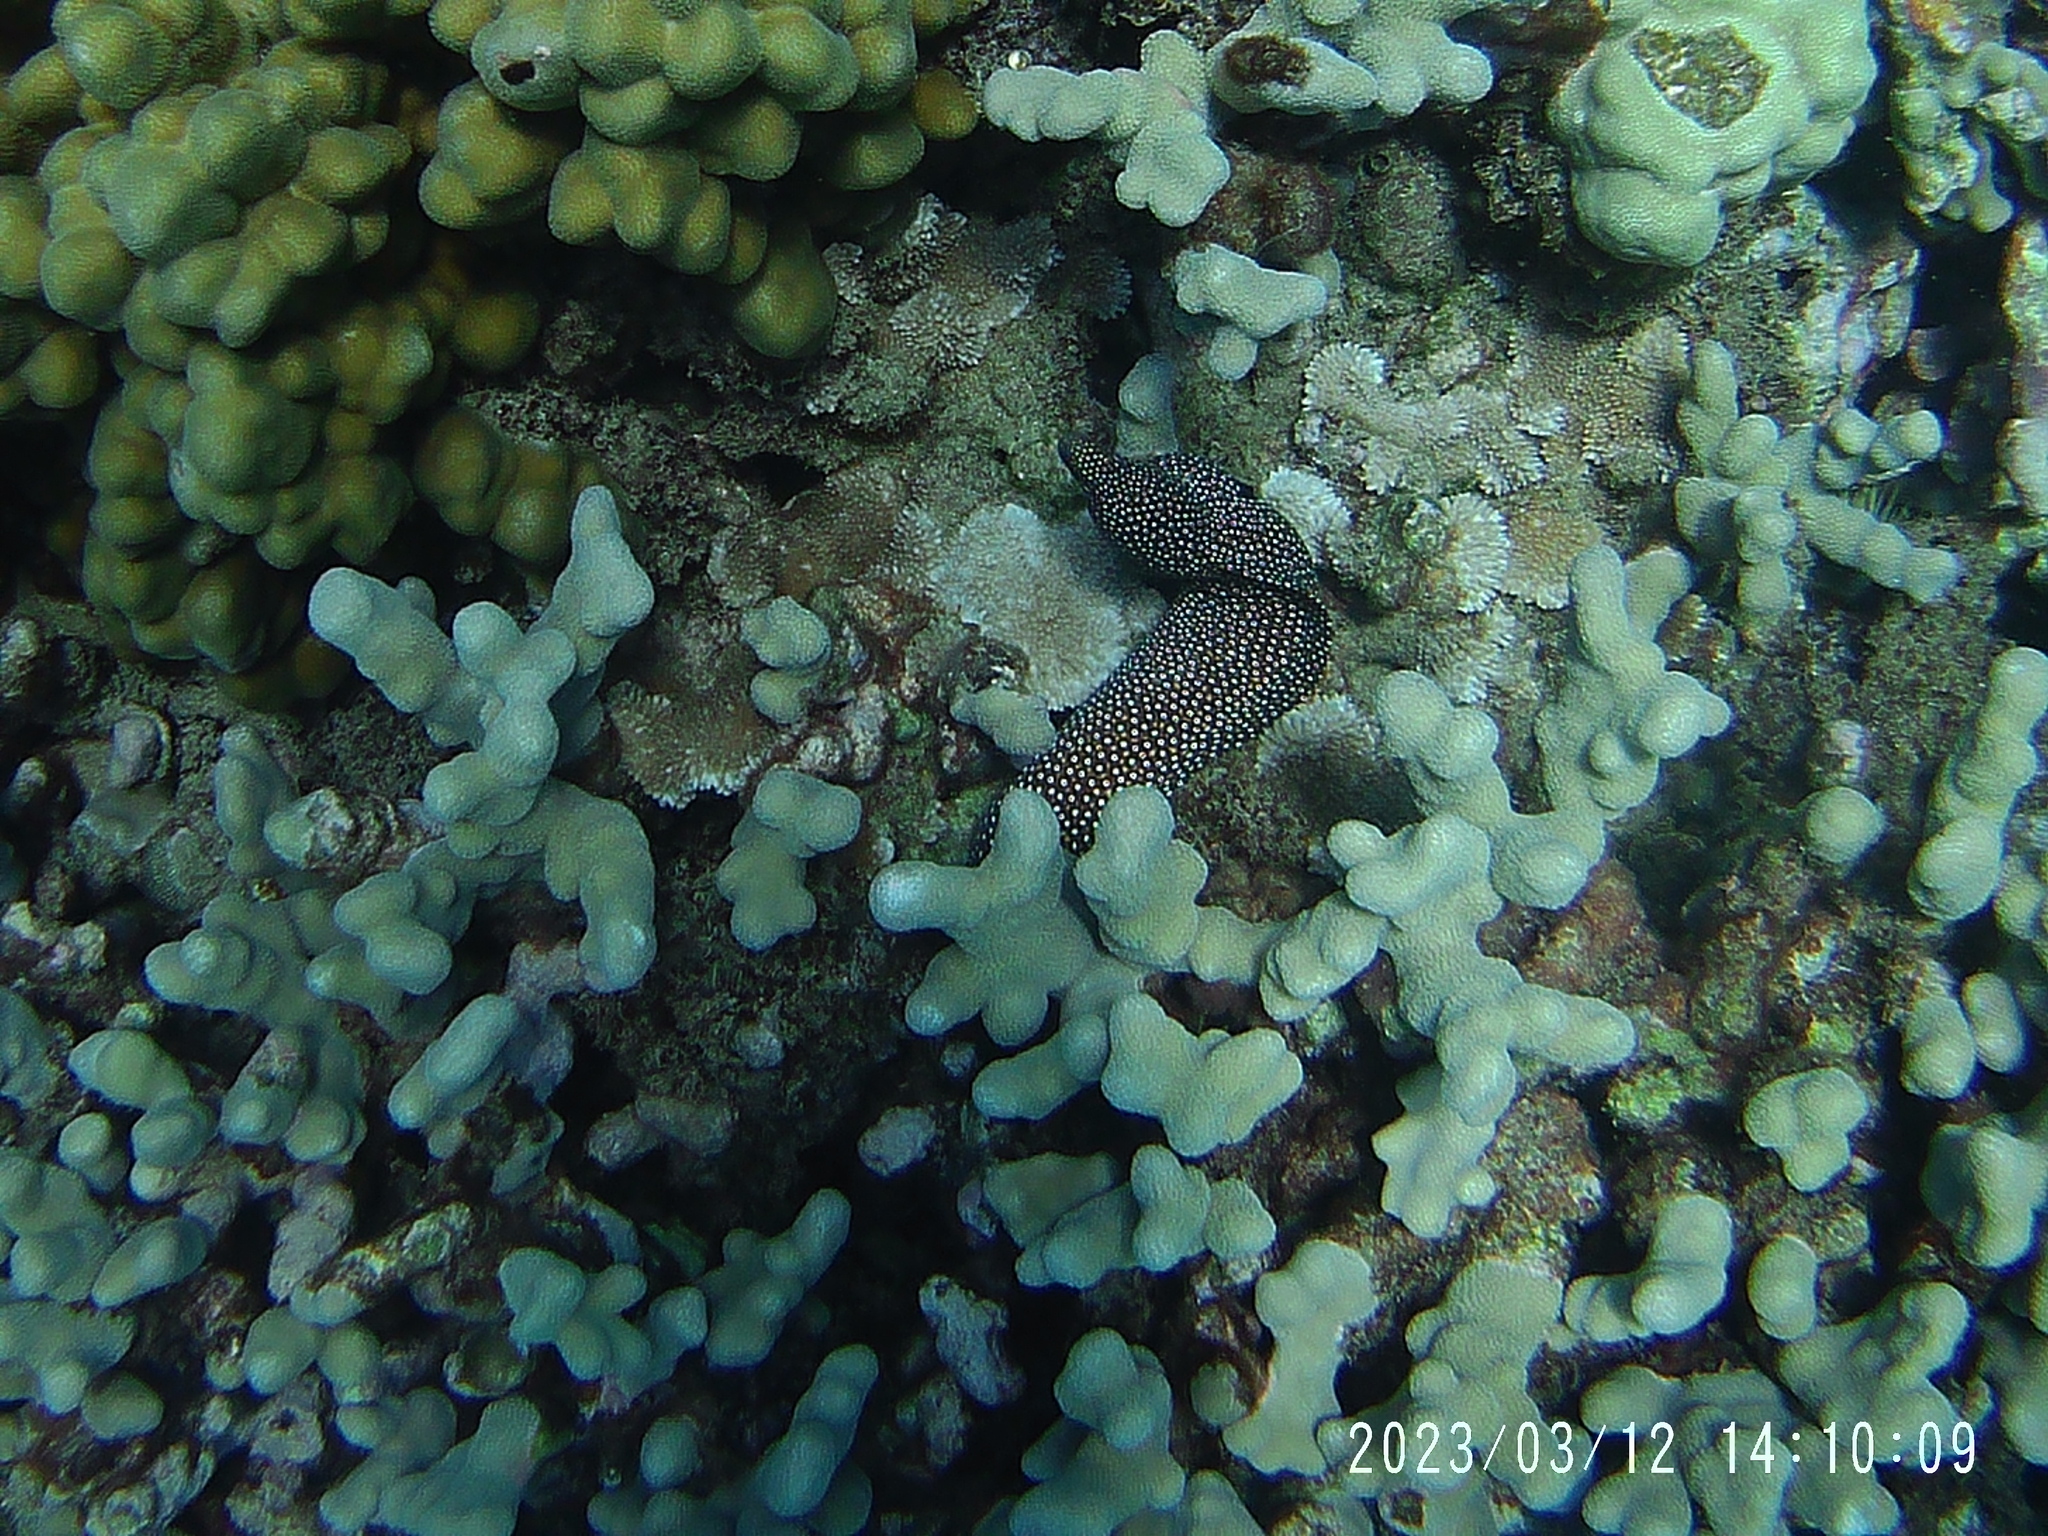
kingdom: Animalia
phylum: Chordata
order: Anguilliformes
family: Muraenidae
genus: Gymnothorax
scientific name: Gymnothorax meleagris
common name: Guineafowl moray
